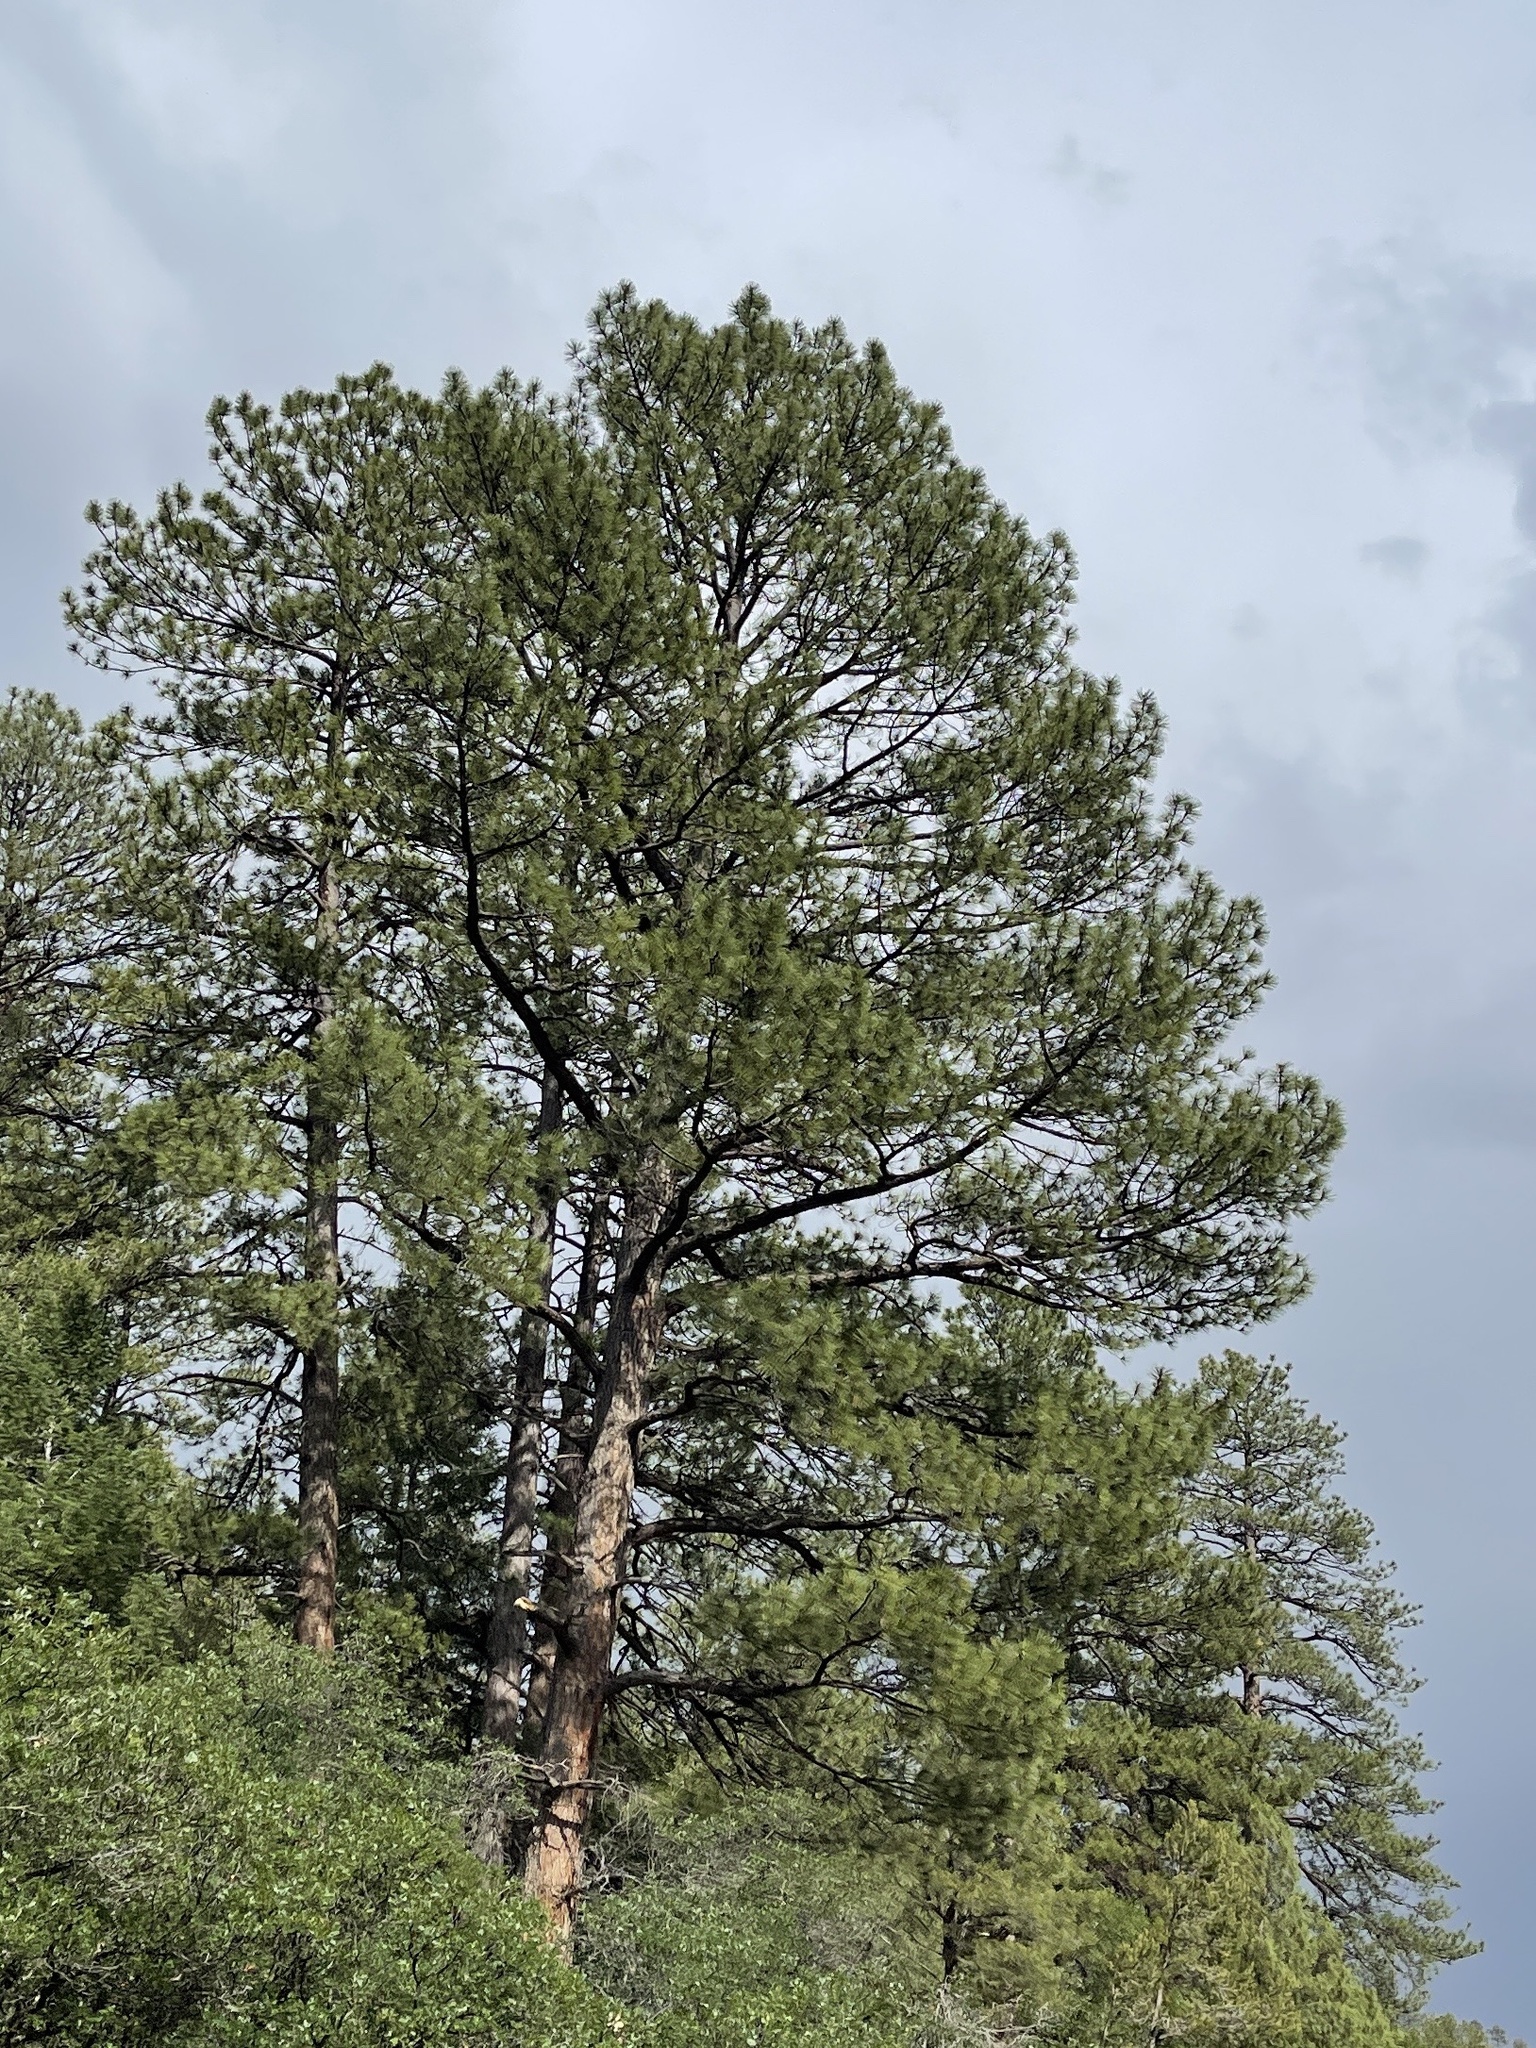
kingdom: Plantae
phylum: Tracheophyta
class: Pinopsida
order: Pinales
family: Pinaceae
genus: Pinus
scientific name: Pinus ponderosa
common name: Western yellow-pine
